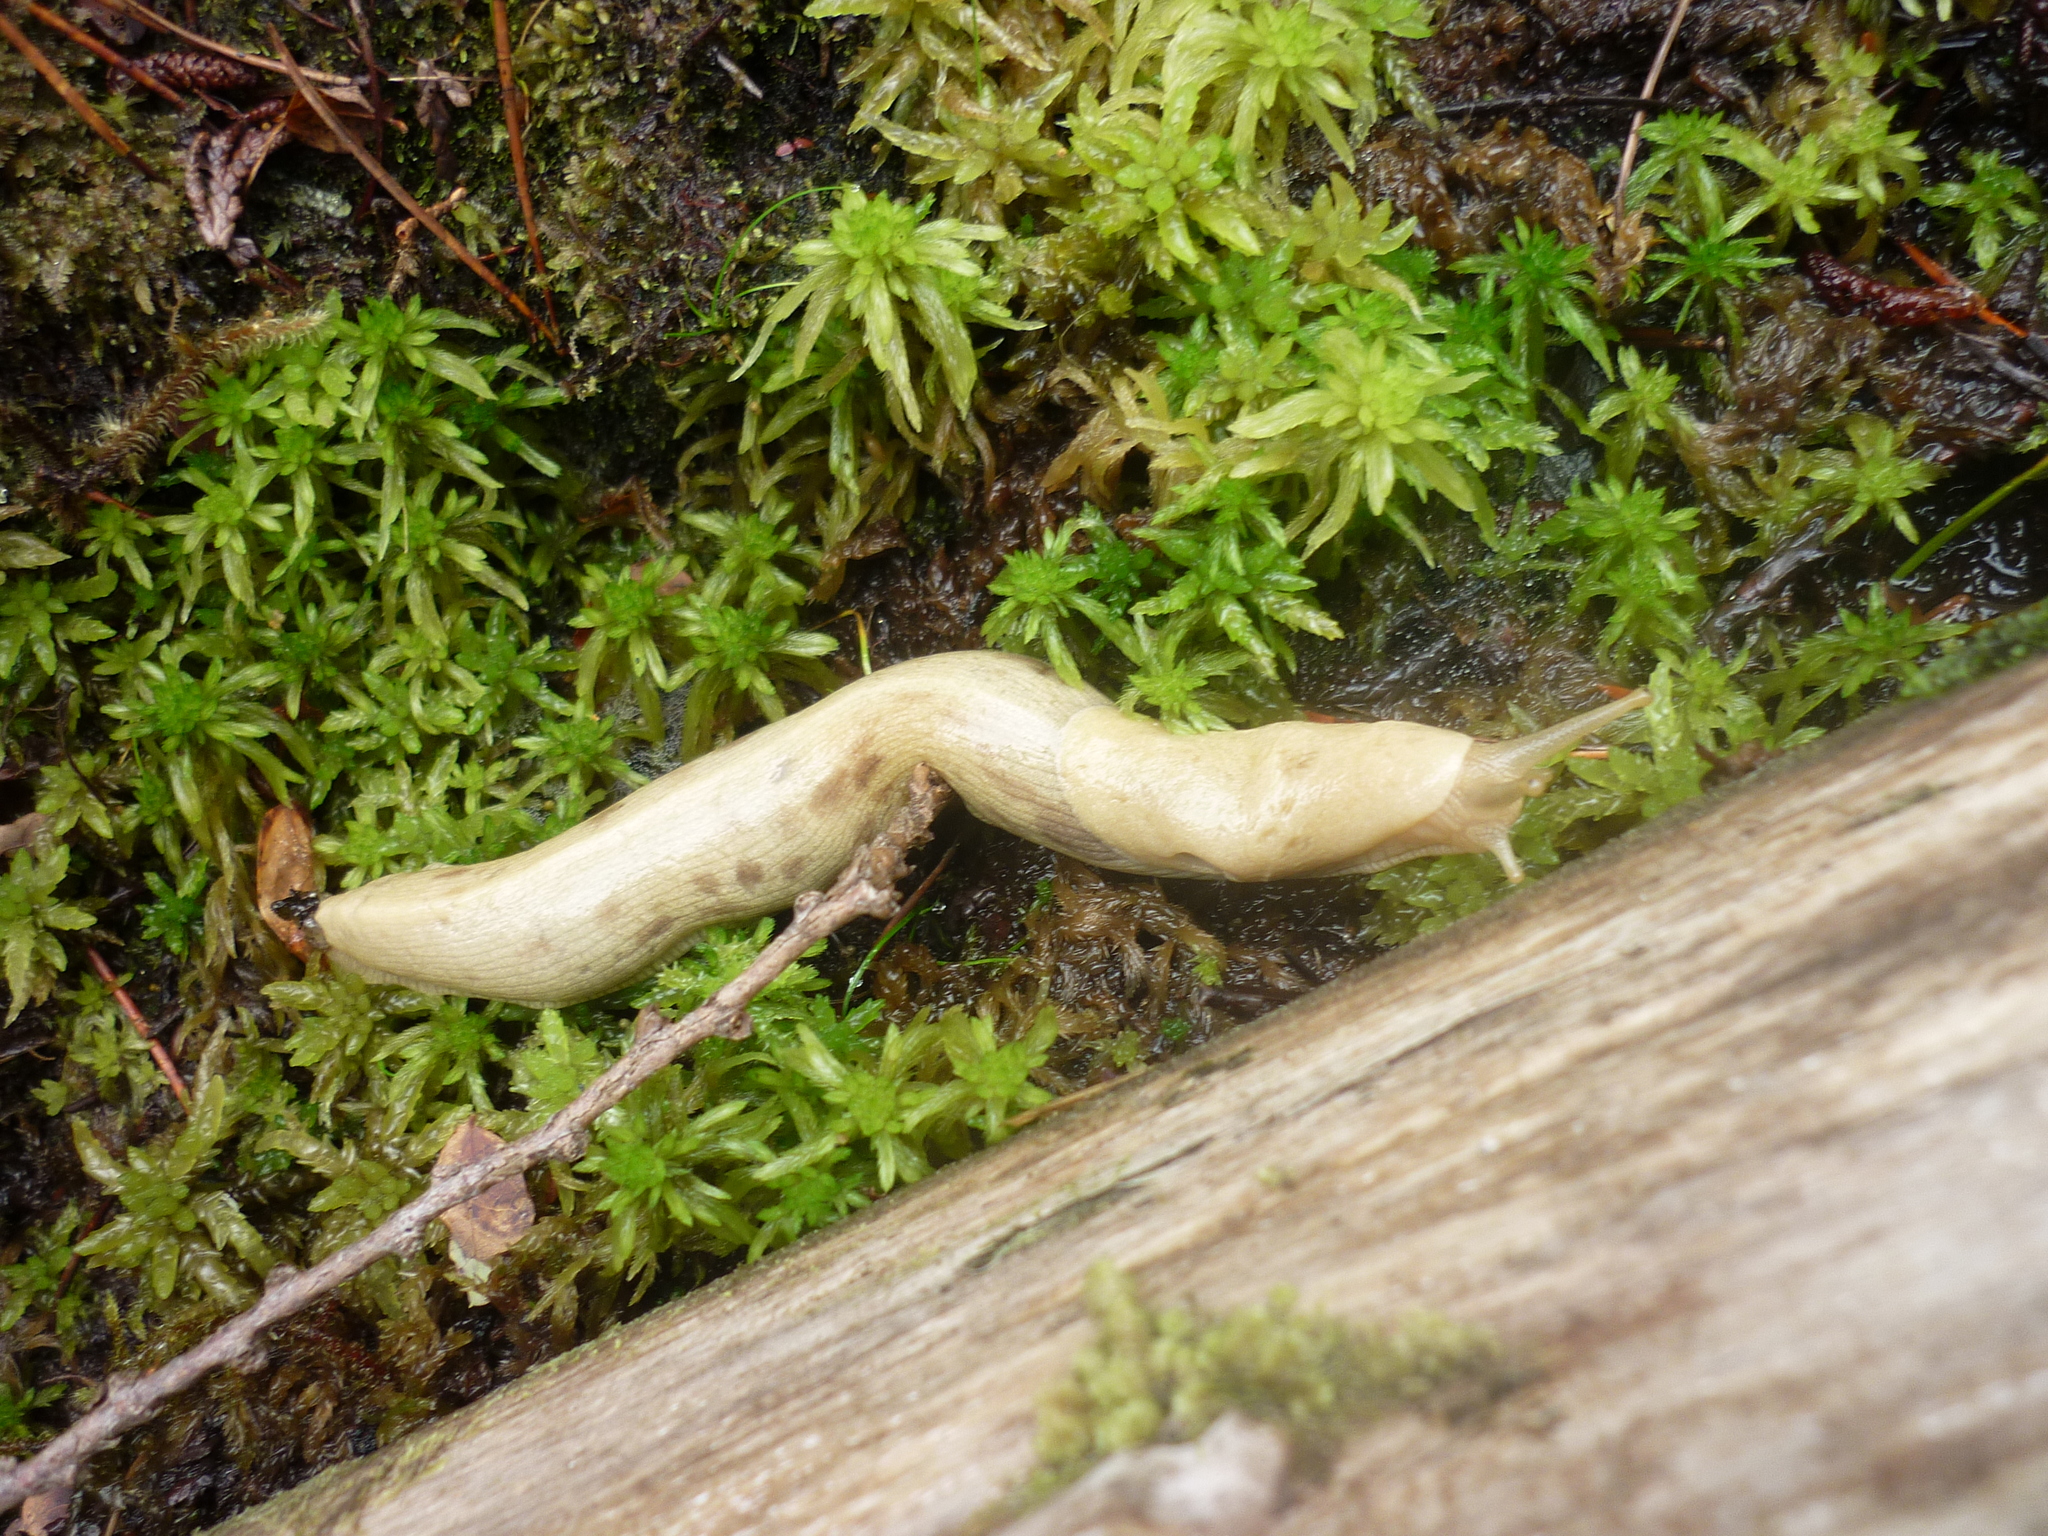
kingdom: Animalia
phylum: Mollusca
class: Gastropoda
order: Stylommatophora
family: Ariolimacidae
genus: Ariolimax
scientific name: Ariolimax columbianus
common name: Pacific banana slug
